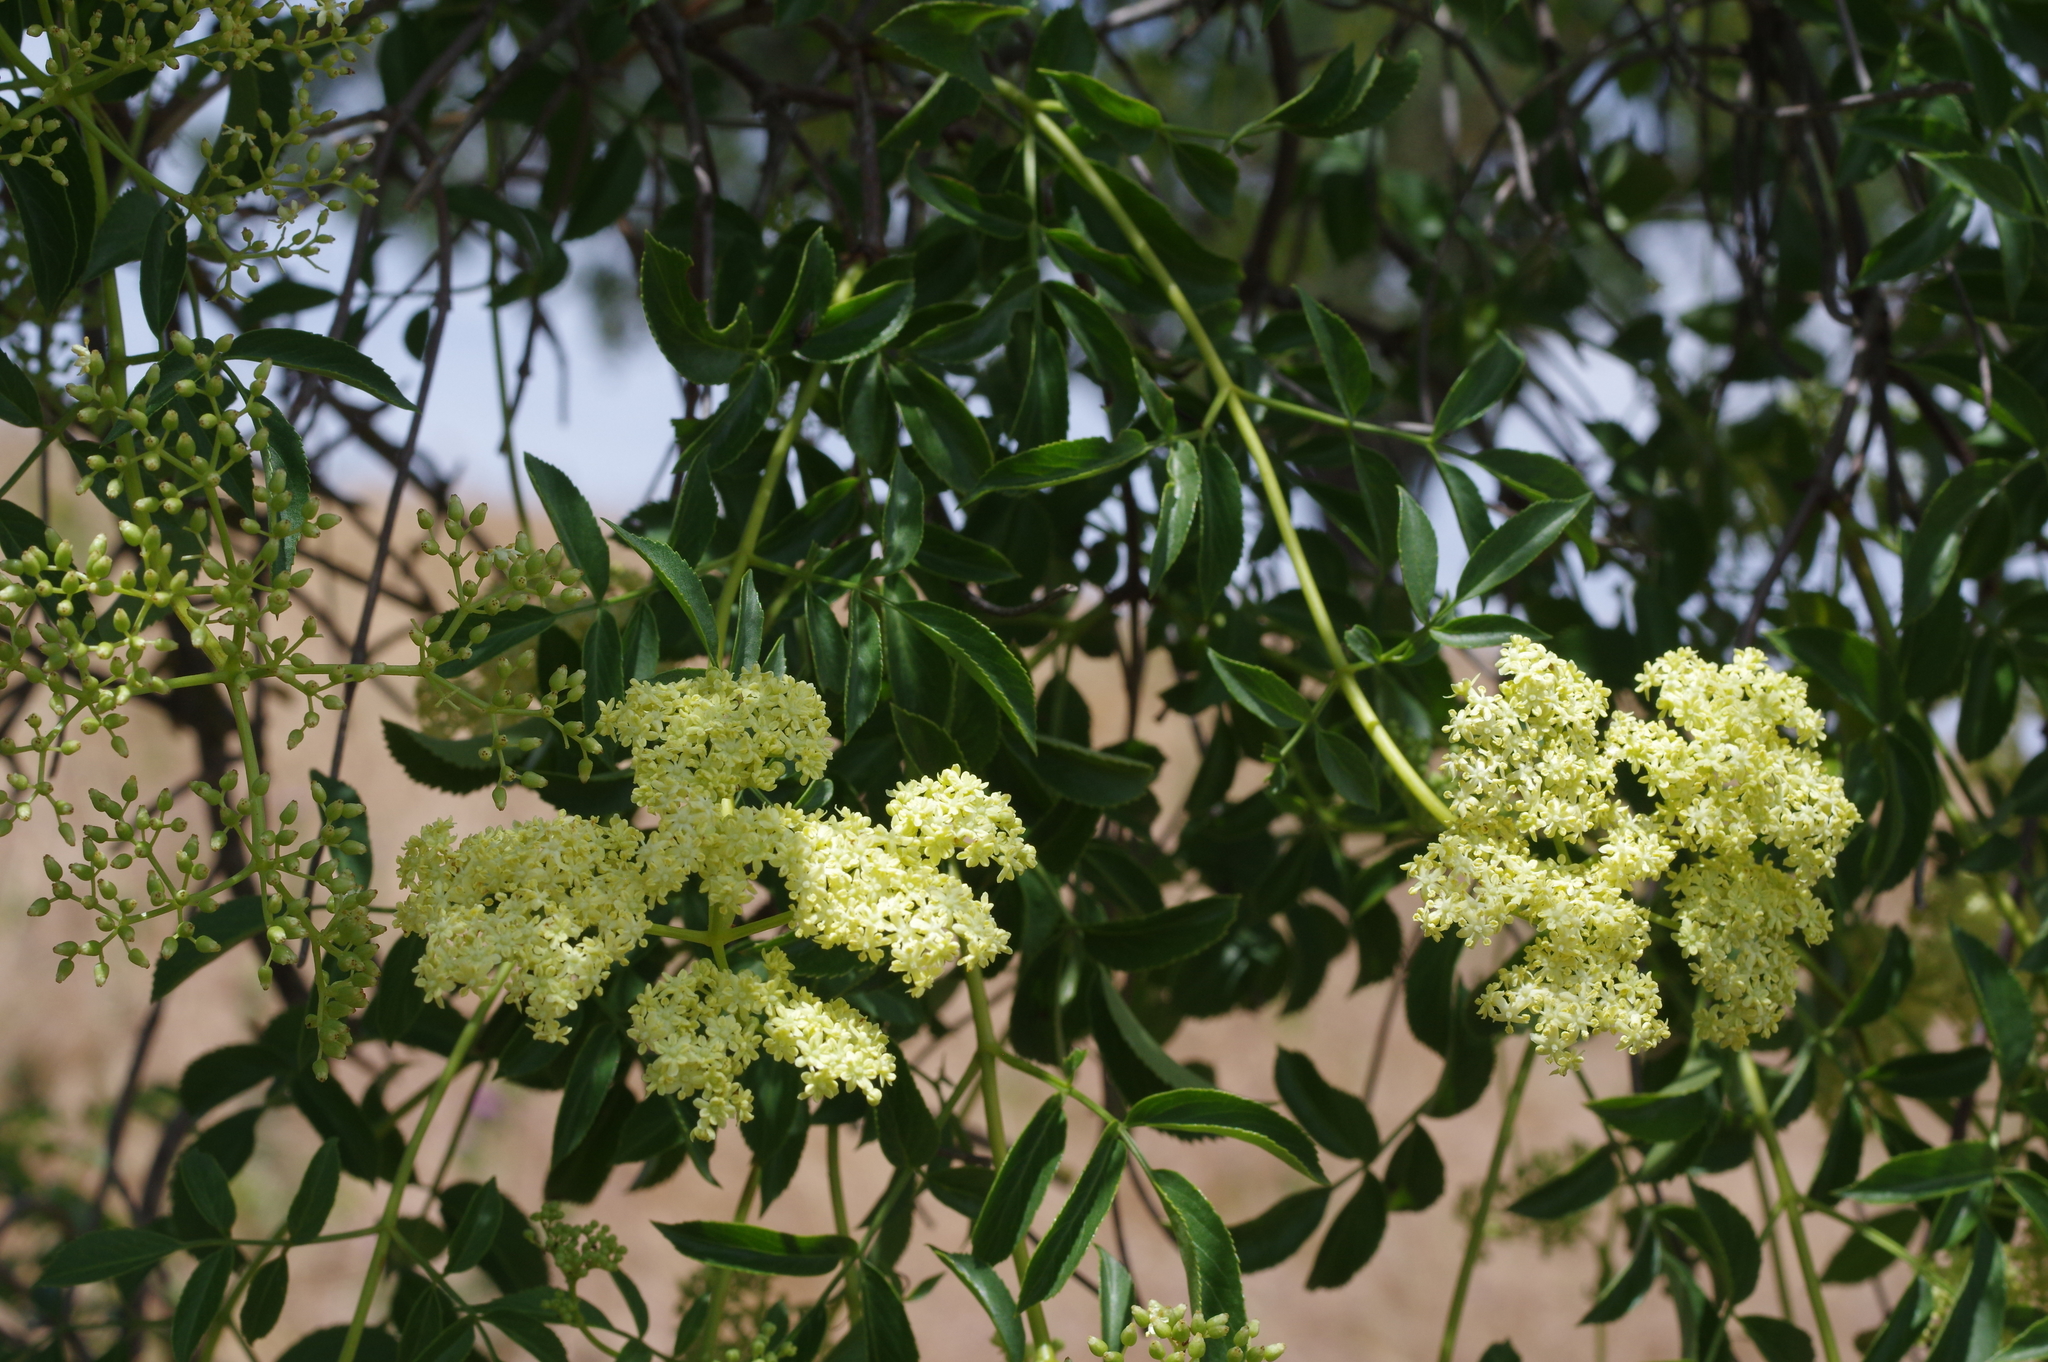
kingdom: Plantae
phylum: Tracheophyta
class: Magnoliopsida
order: Dipsacales
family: Viburnaceae
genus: Sambucus
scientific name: Sambucus cerulea
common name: Blue elder
